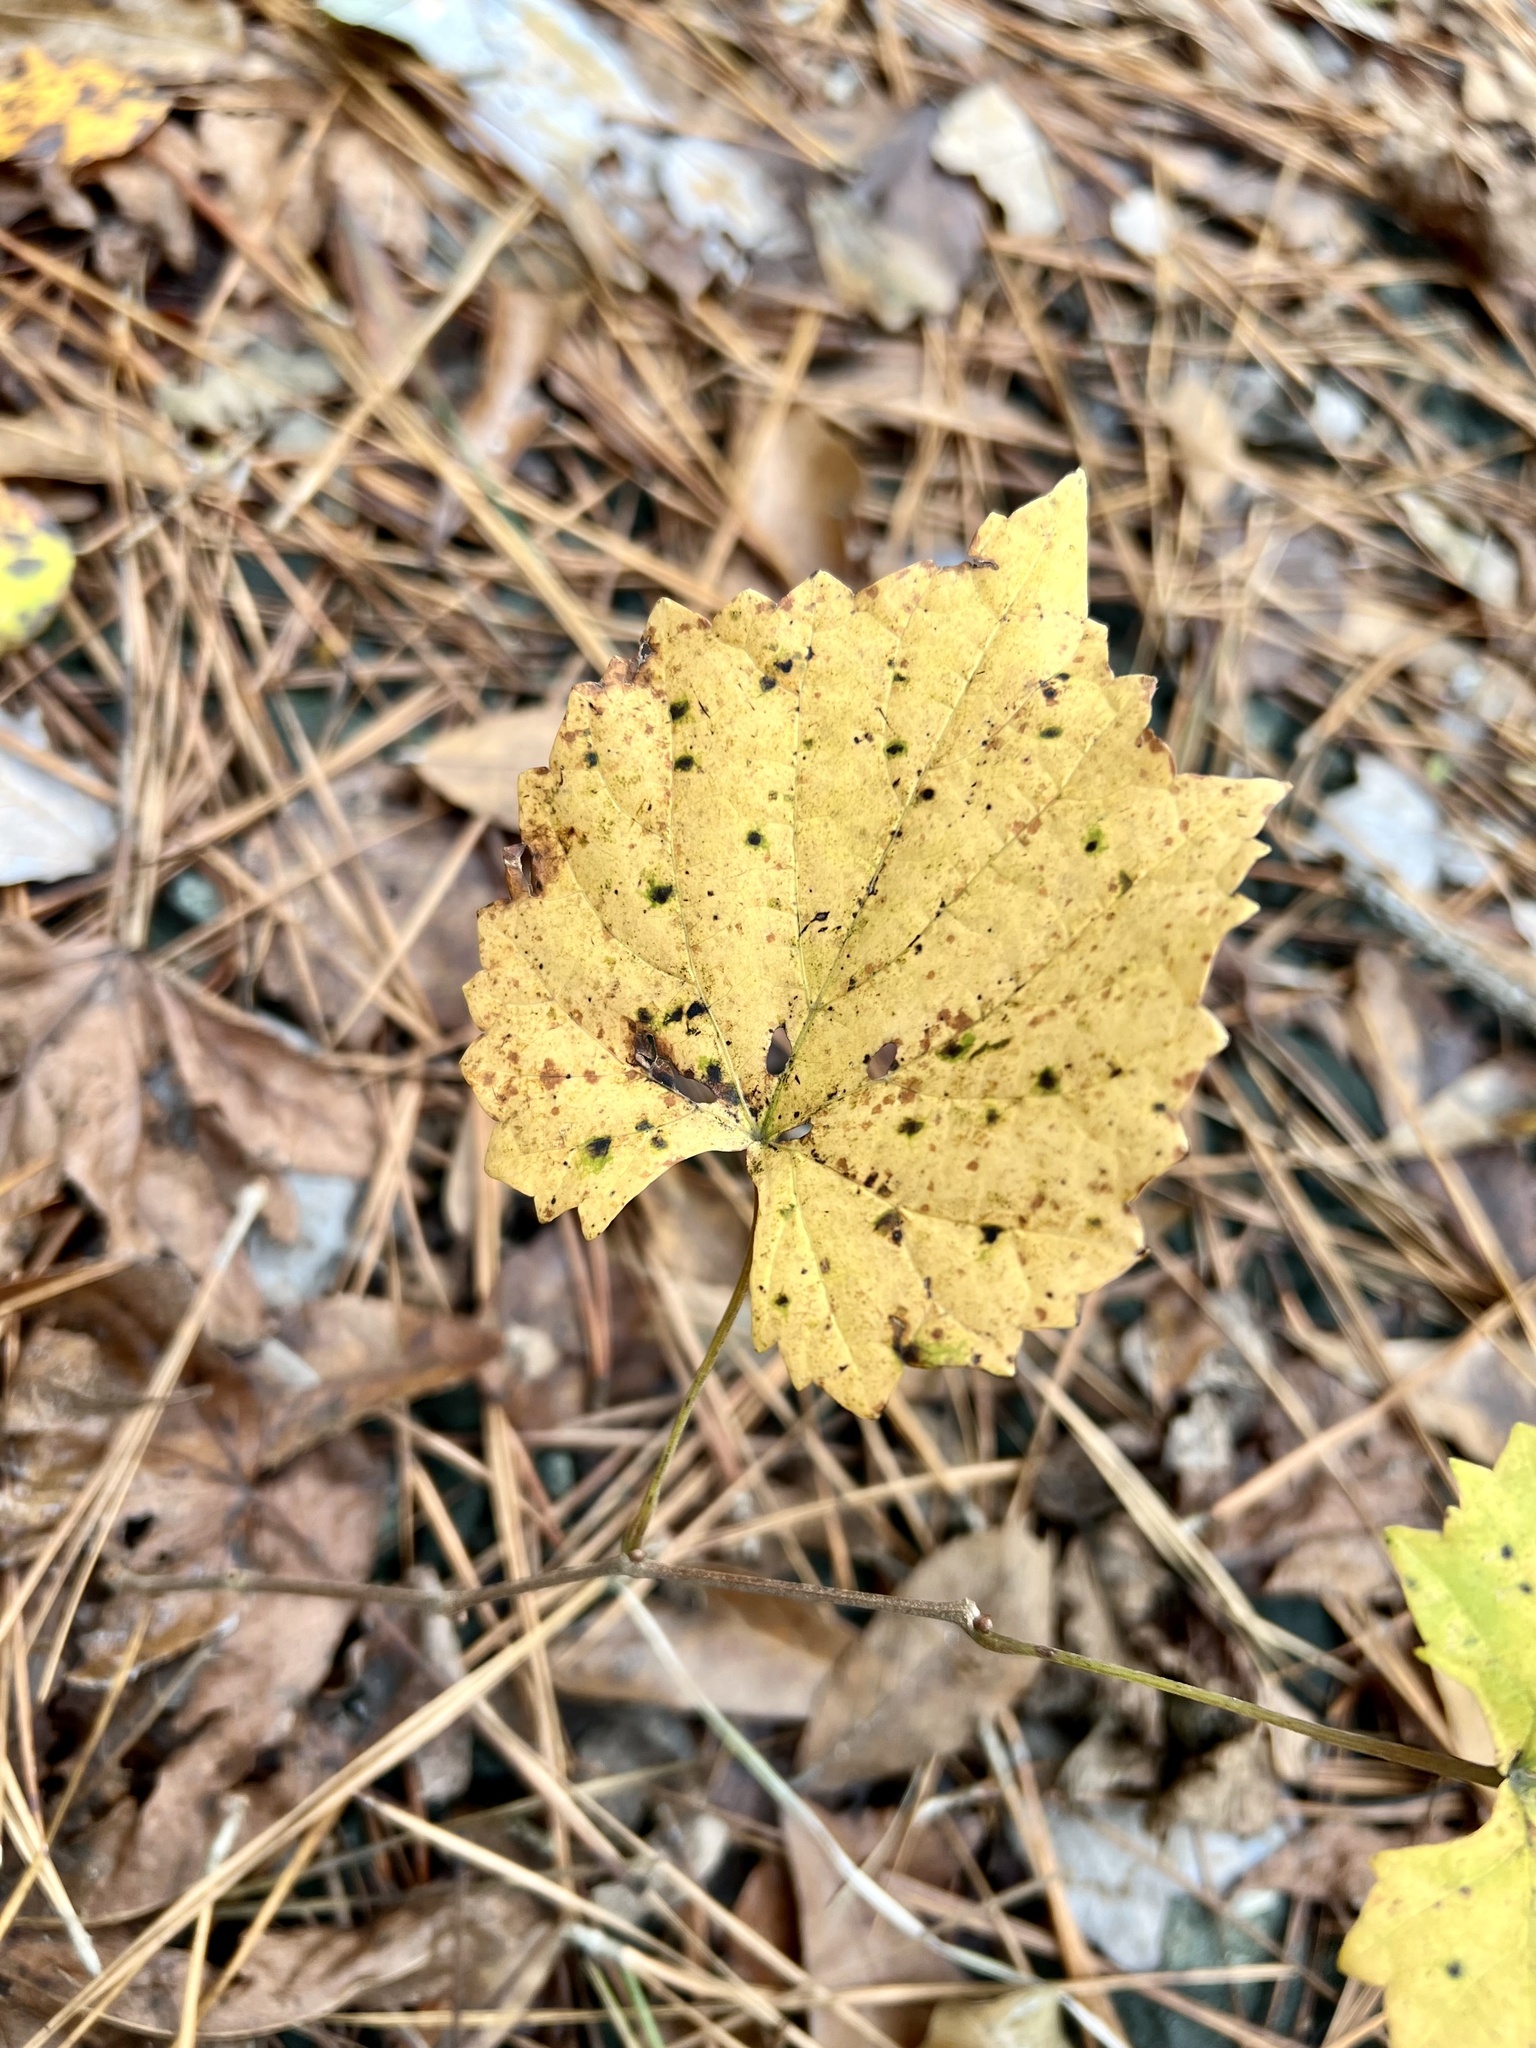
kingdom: Plantae
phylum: Tracheophyta
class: Magnoliopsida
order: Vitales
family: Vitaceae
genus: Vitis
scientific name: Vitis rotundifolia
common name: Muscadine grape
